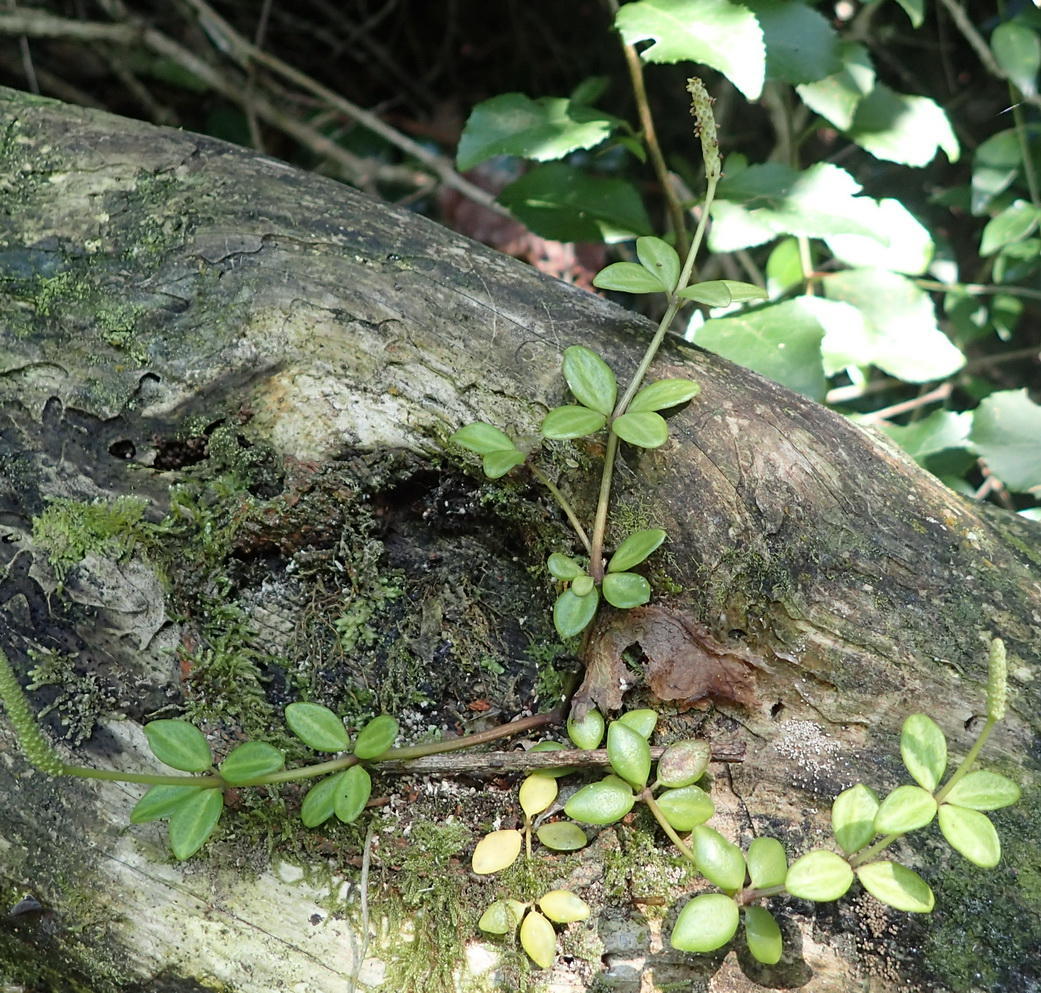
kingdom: Plantae
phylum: Tracheophyta
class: Magnoliopsida
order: Piperales
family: Piperaceae
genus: Peperomia
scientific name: Peperomia tetraphylla
